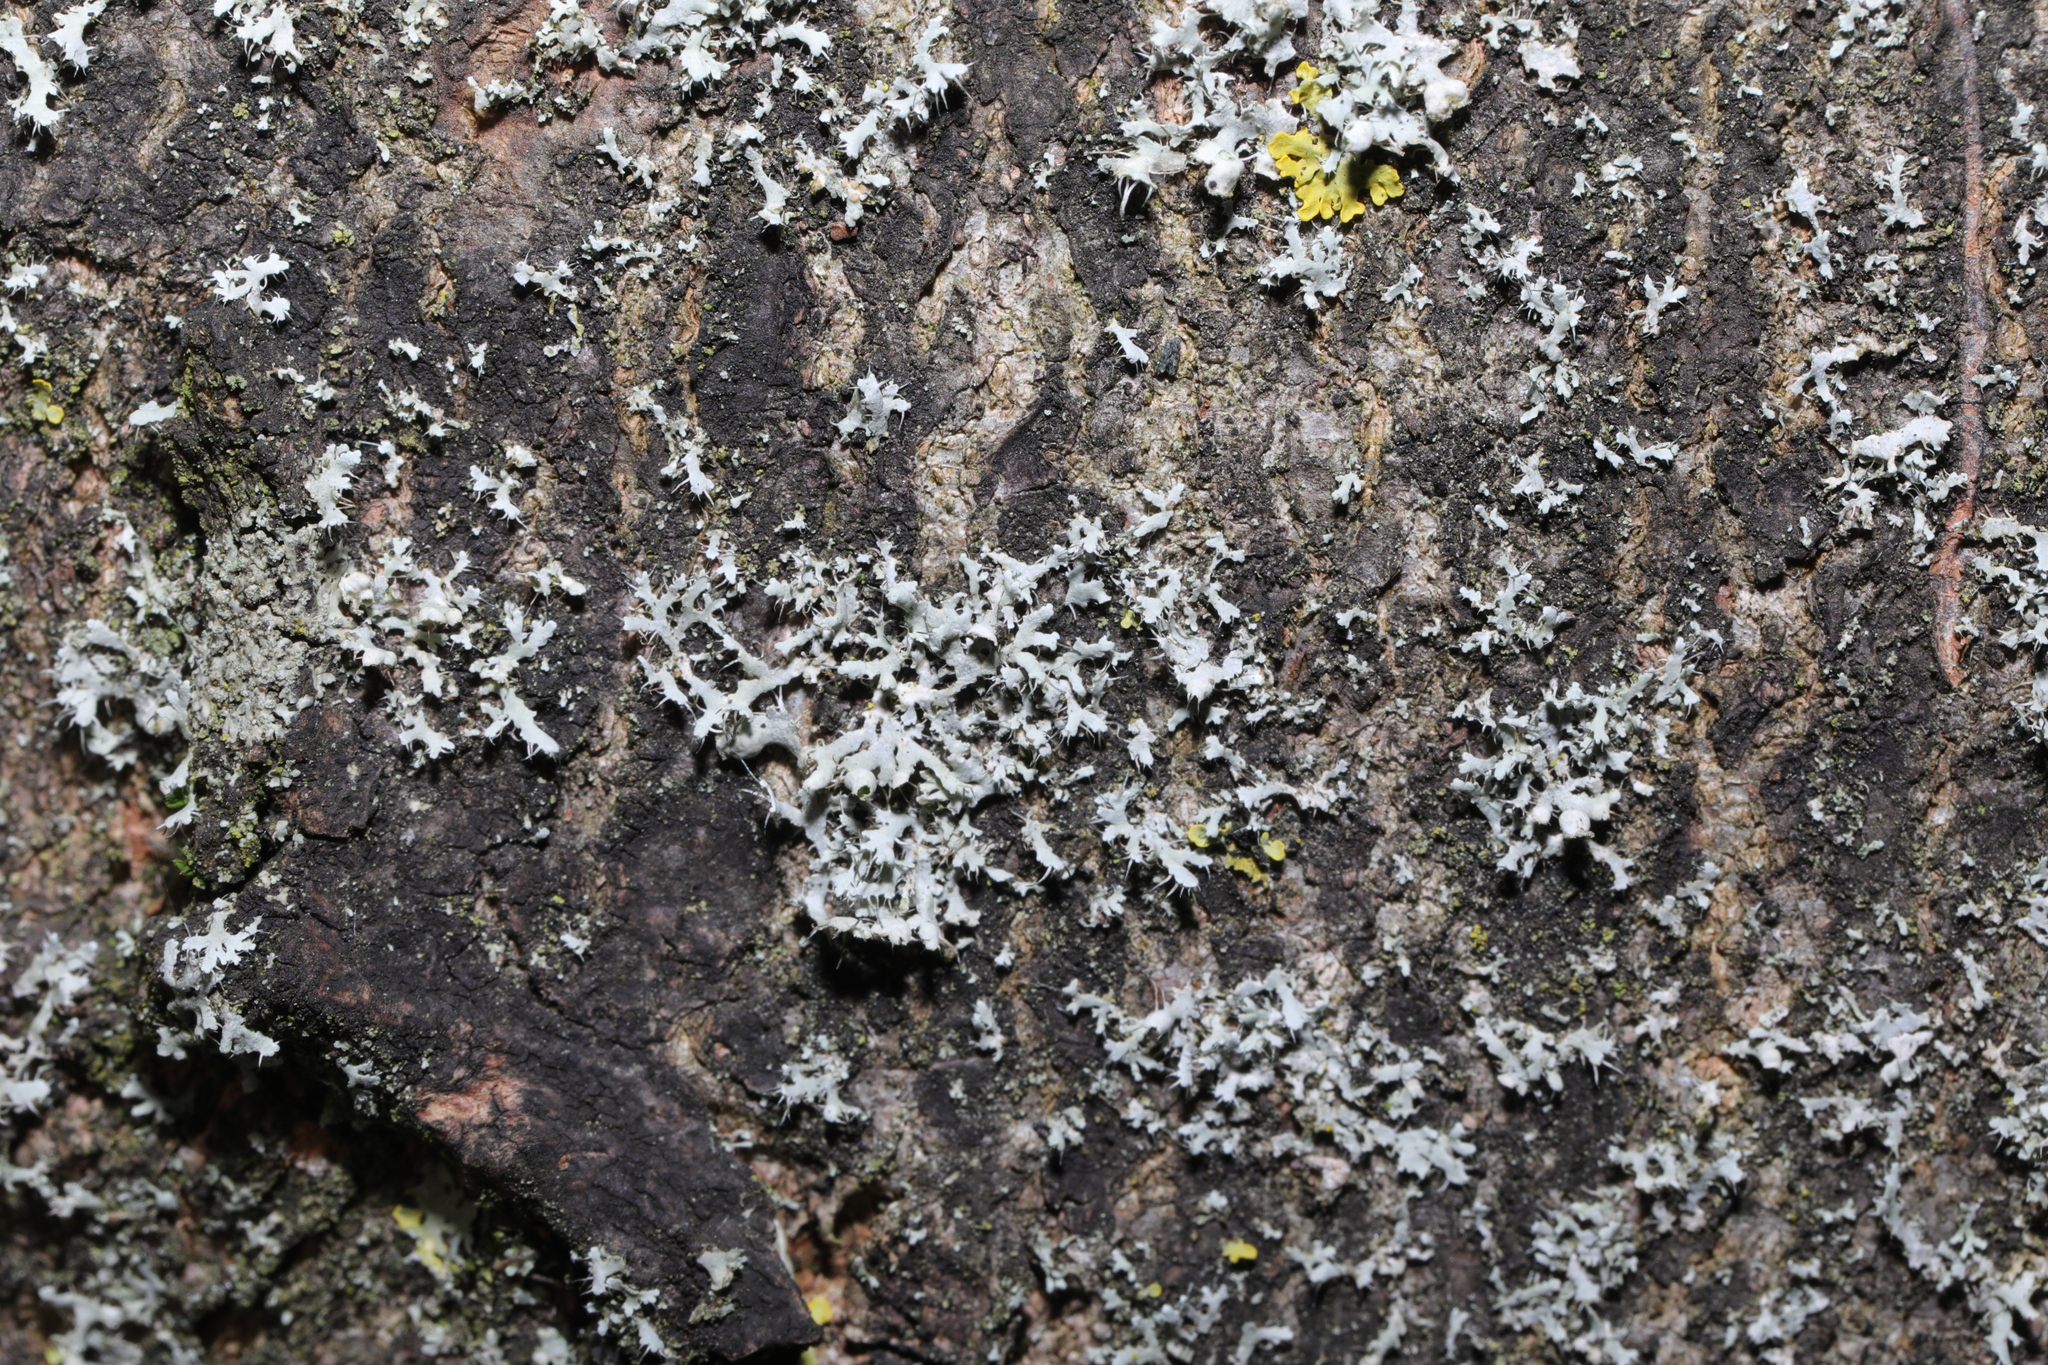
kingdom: Fungi
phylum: Ascomycota
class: Lecanoromycetes
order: Caliciales
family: Physciaceae
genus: Physcia
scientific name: Physcia adscendens
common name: Hooded rosette lichen
